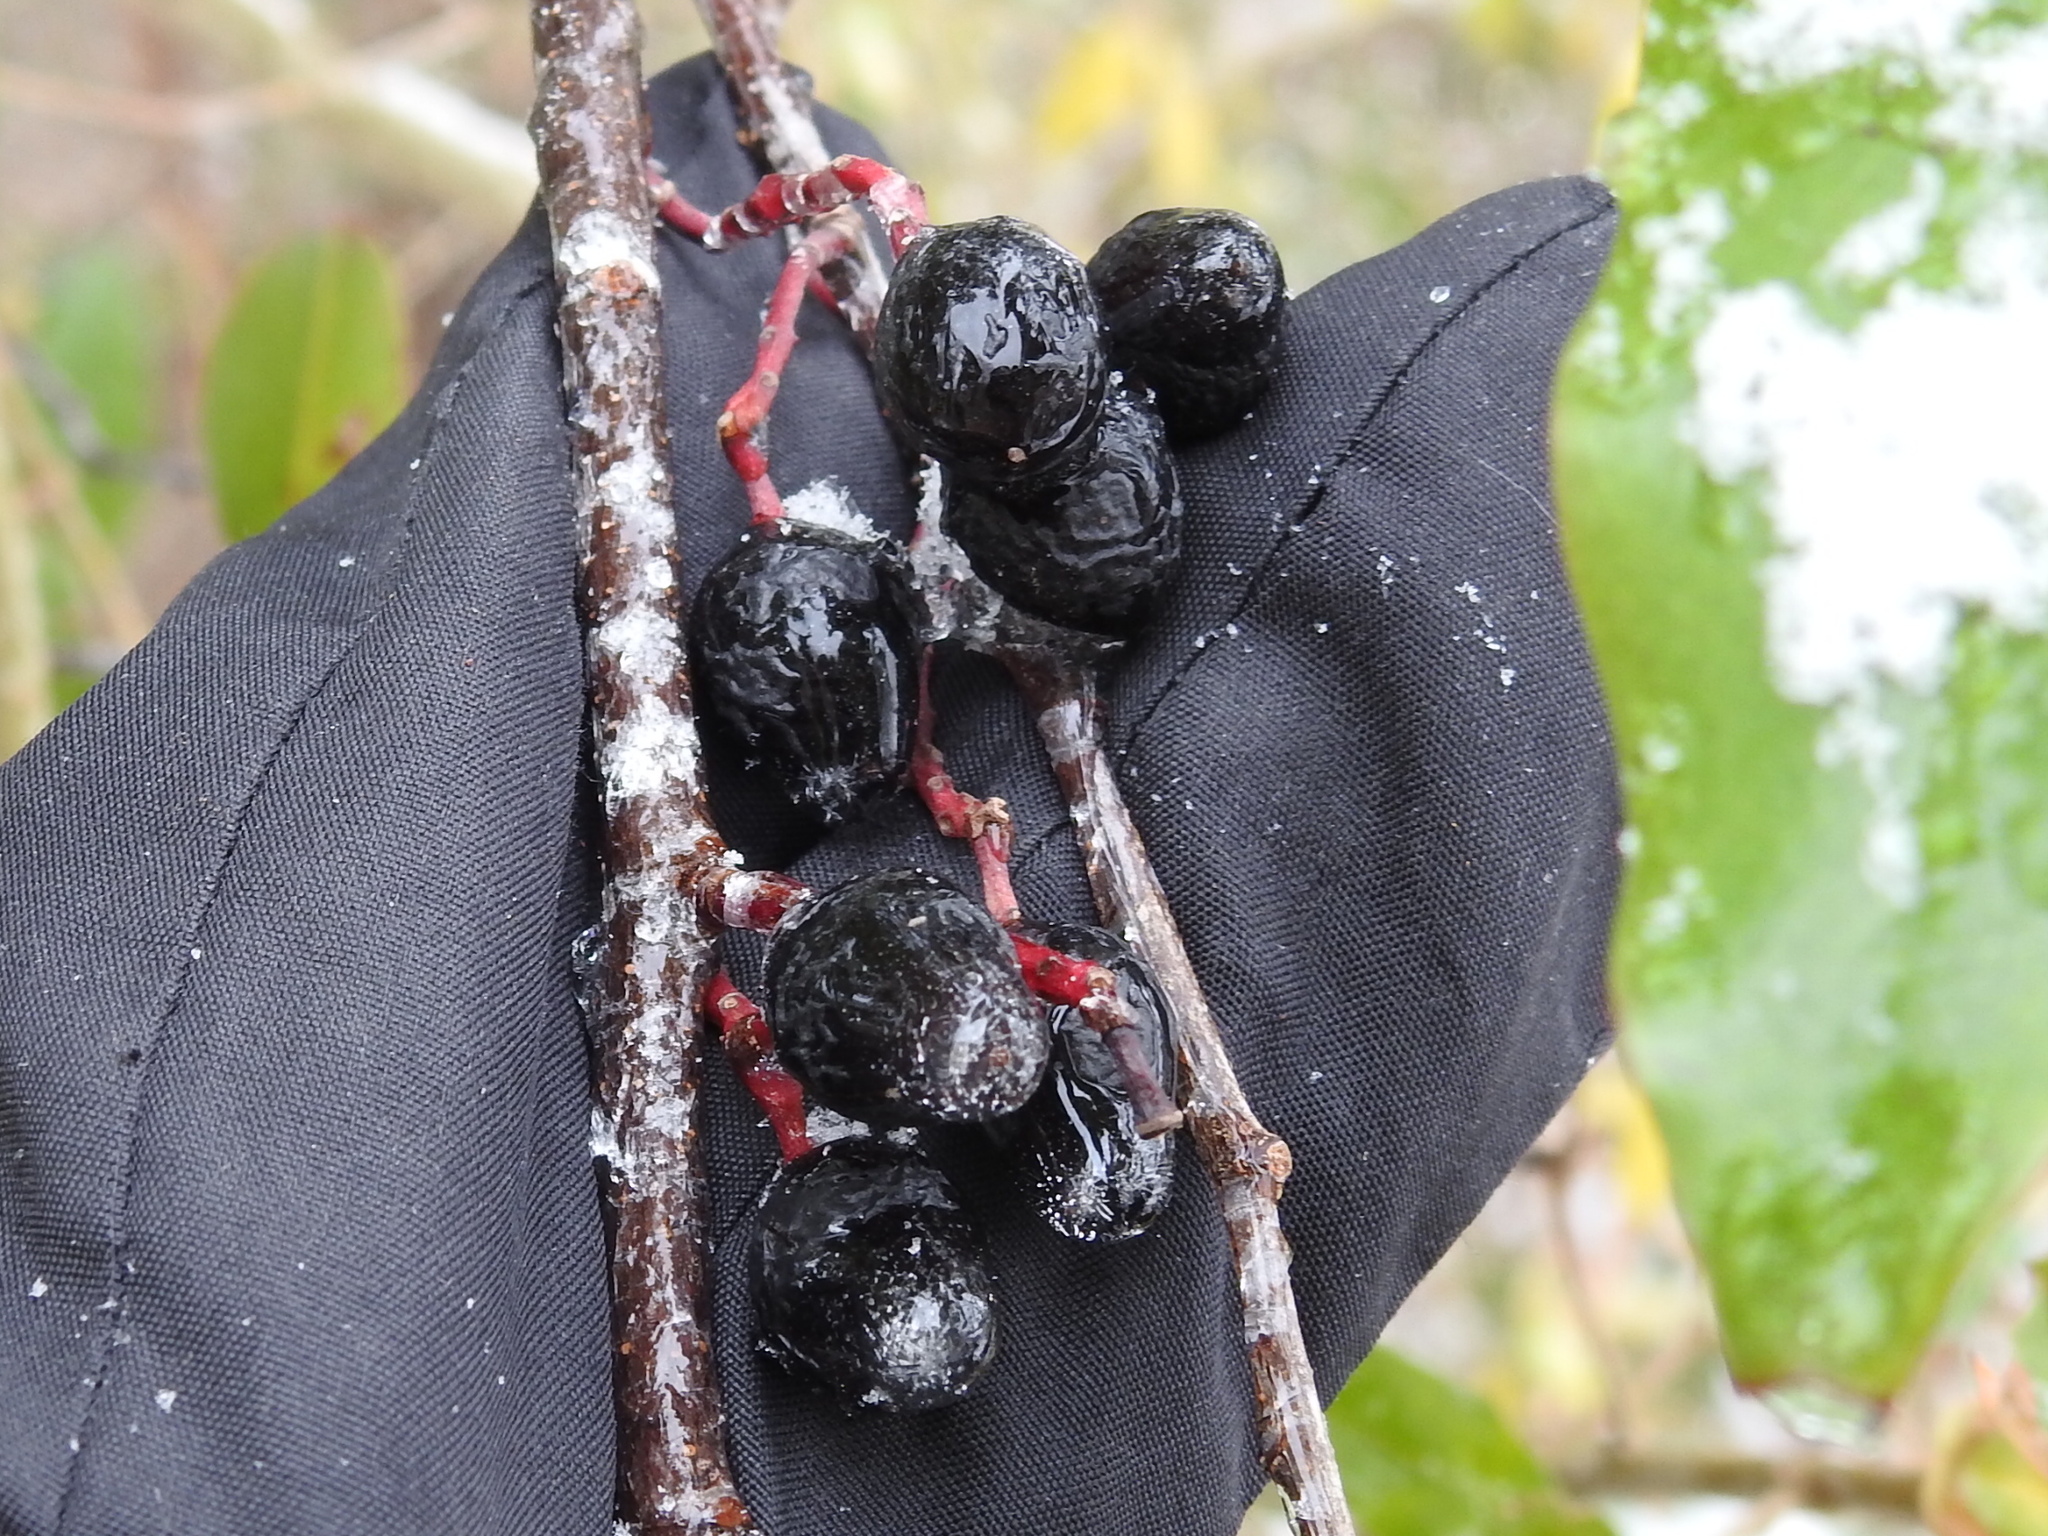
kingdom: Plantae
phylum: Tracheophyta
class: Magnoliopsida
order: Rosales
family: Rosaceae
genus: Prunus
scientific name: Prunus caroliniana
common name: Carolina laurel cherry
